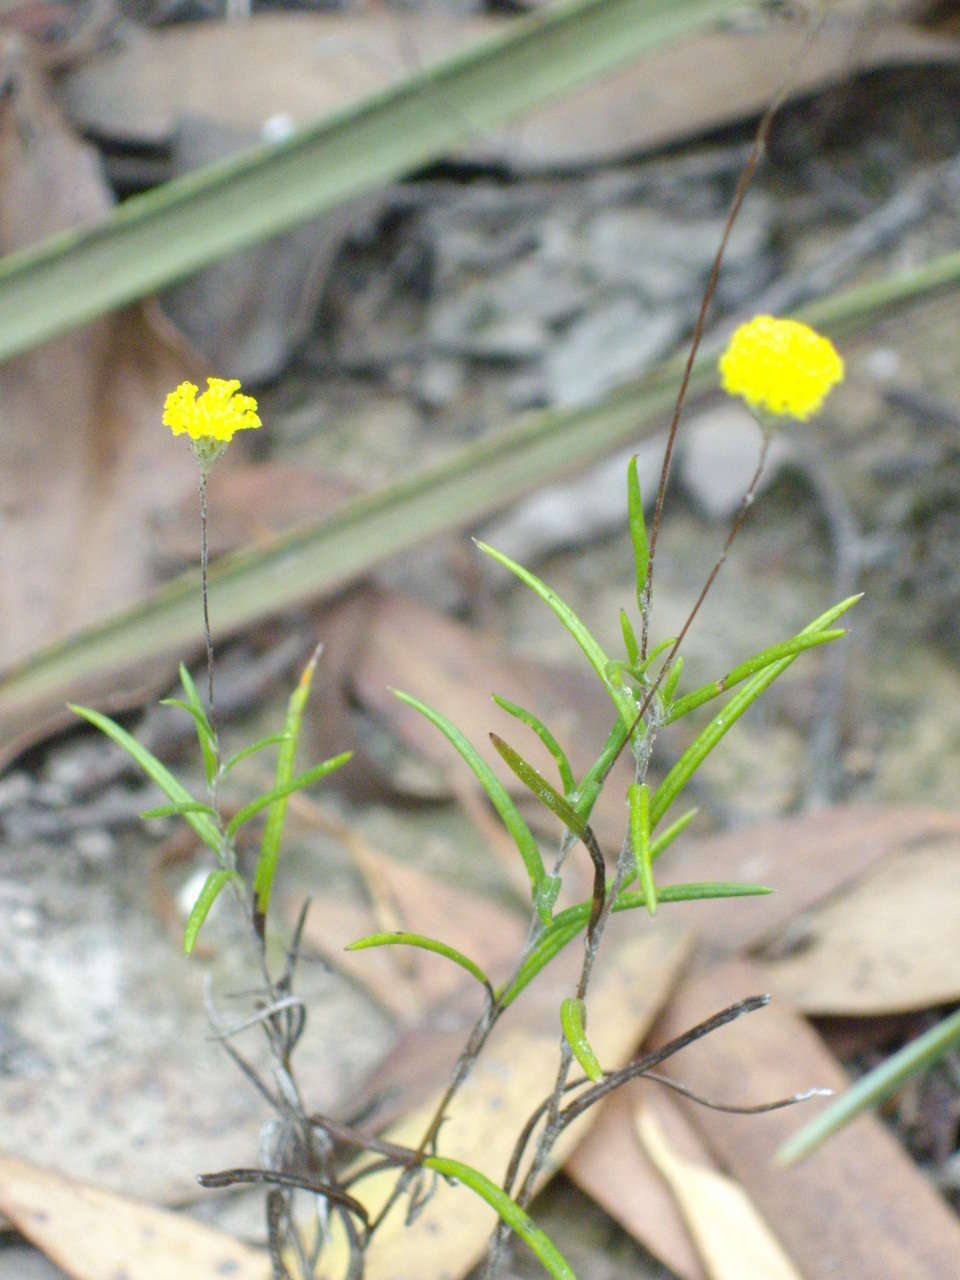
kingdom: Plantae
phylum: Tracheophyta
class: Magnoliopsida
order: Asterales
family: Asteraceae
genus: Leptorhynchos
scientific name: Leptorhynchos tenuifolius
